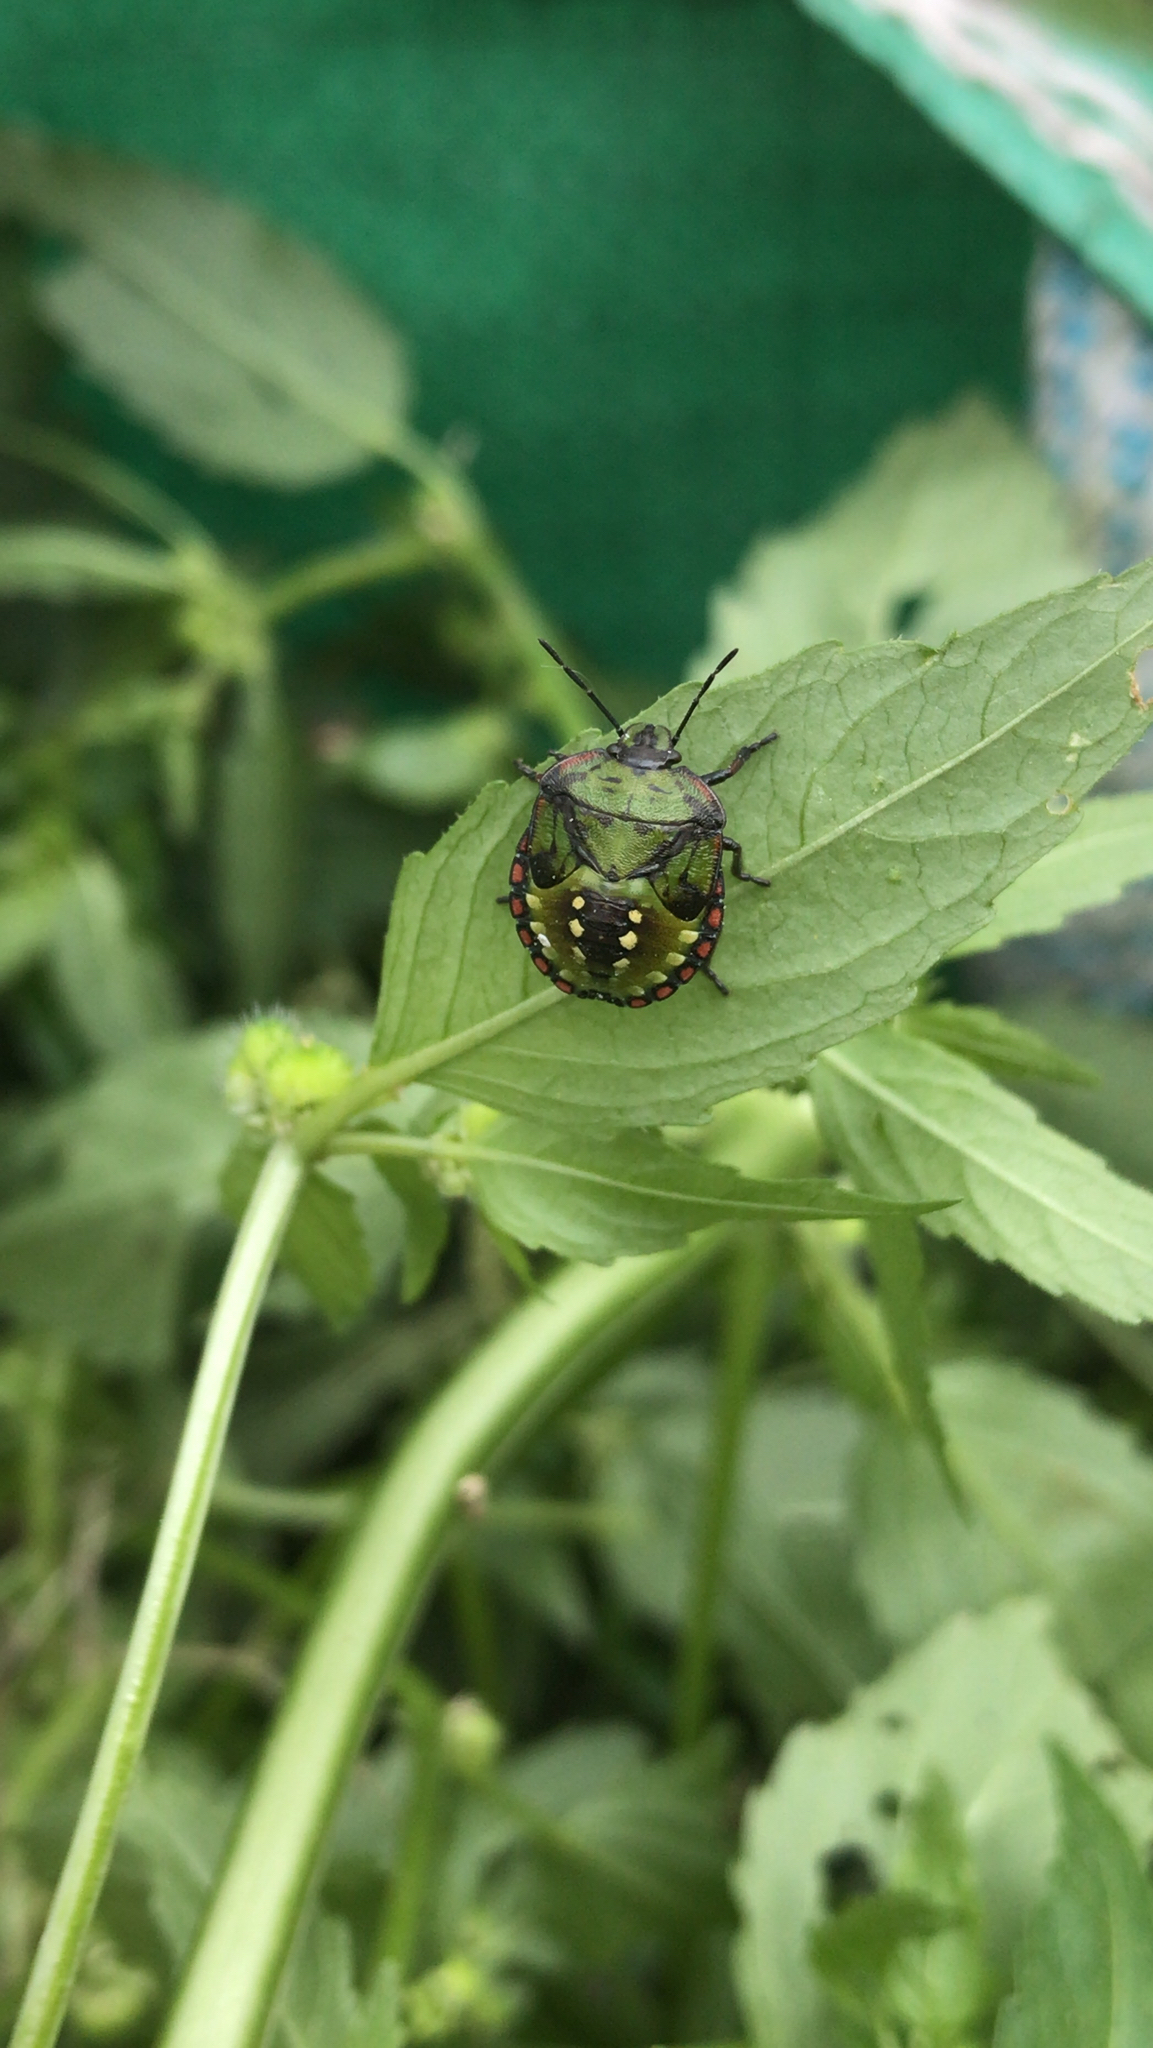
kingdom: Animalia
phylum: Arthropoda
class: Insecta
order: Hemiptera
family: Pentatomidae
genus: Nezara
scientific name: Nezara viridula
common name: Southern green stink bug
